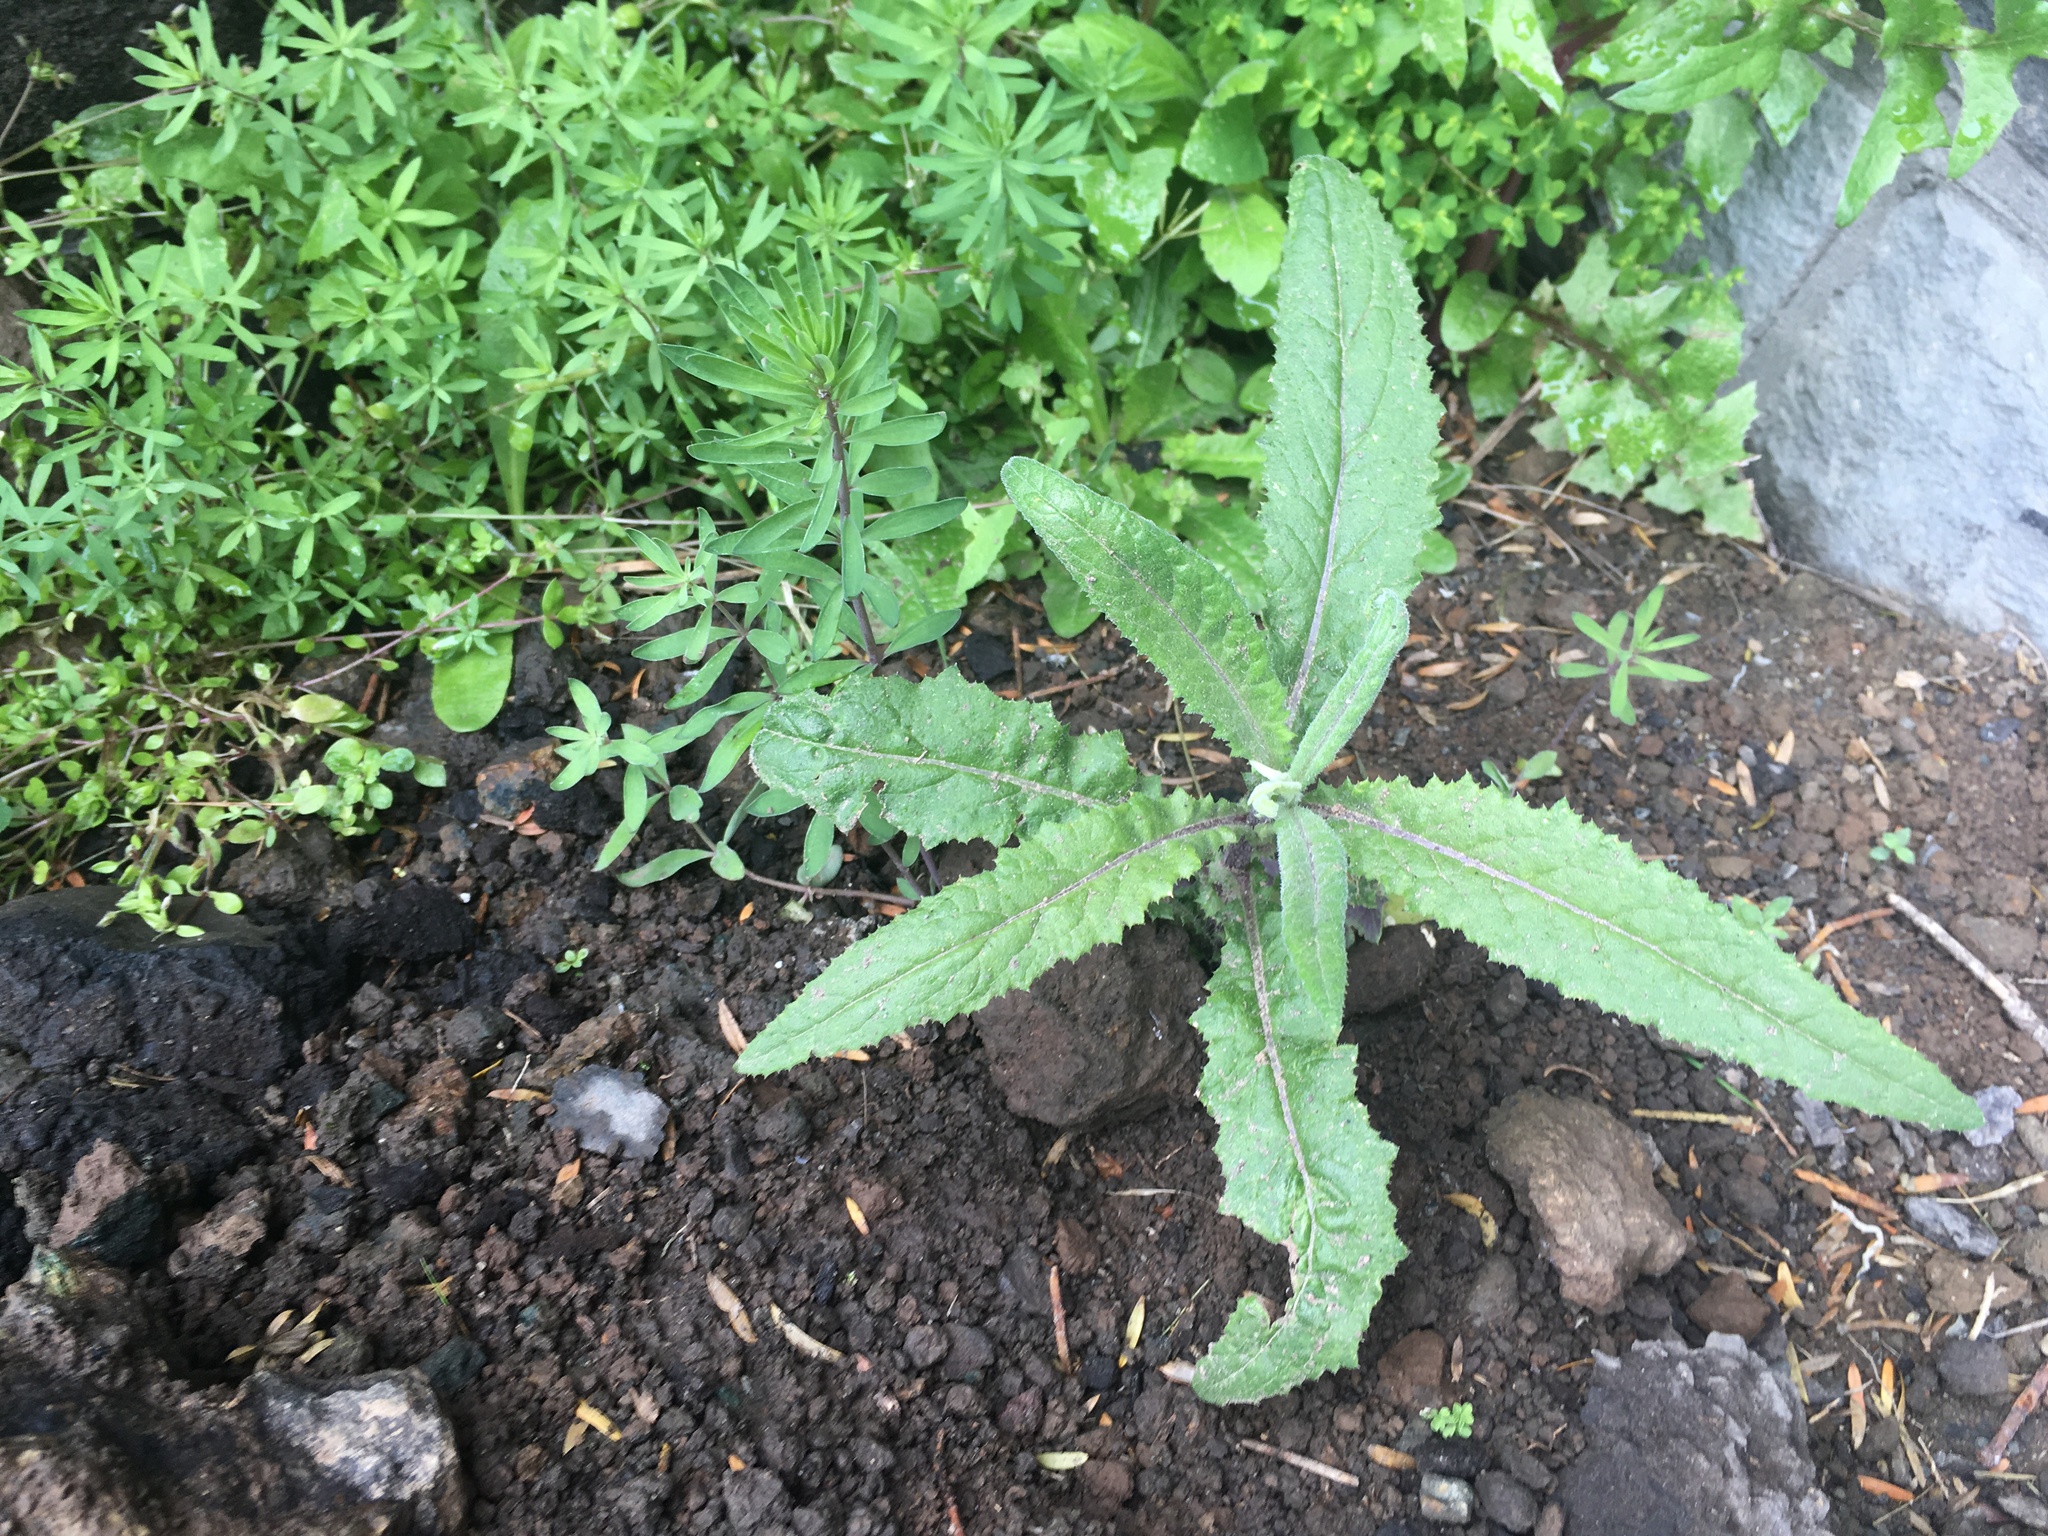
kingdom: Plantae
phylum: Tracheophyta
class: Magnoliopsida
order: Asterales
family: Asteraceae
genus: Senecio
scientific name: Senecio minimus
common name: Toothed fireweed
